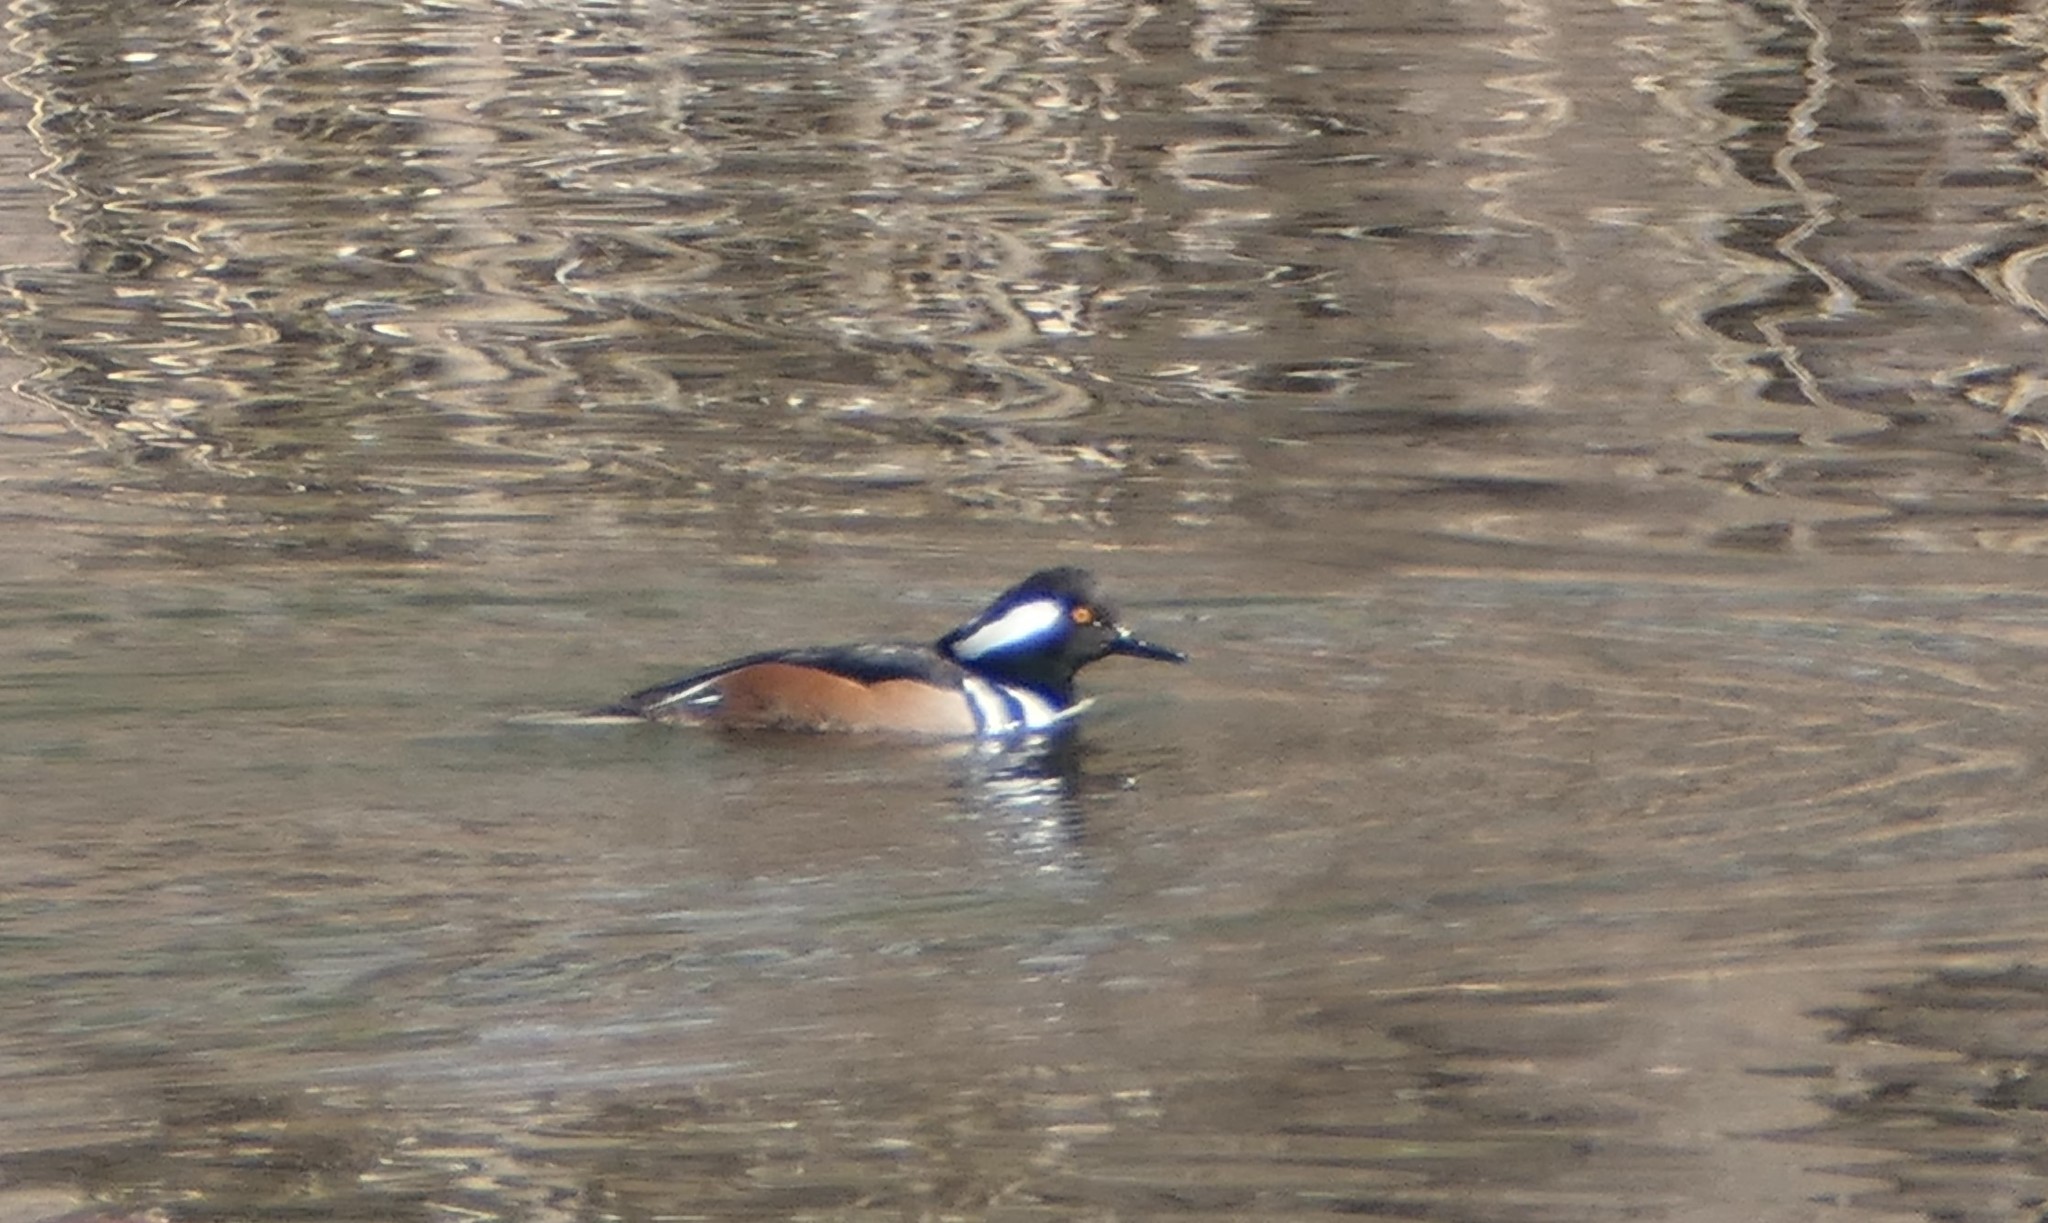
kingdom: Animalia
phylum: Chordata
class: Aves
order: Anseriformes
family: Anatidae
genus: Lophodytes
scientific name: Lophodytes cucullatus
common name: Hooded merganser
